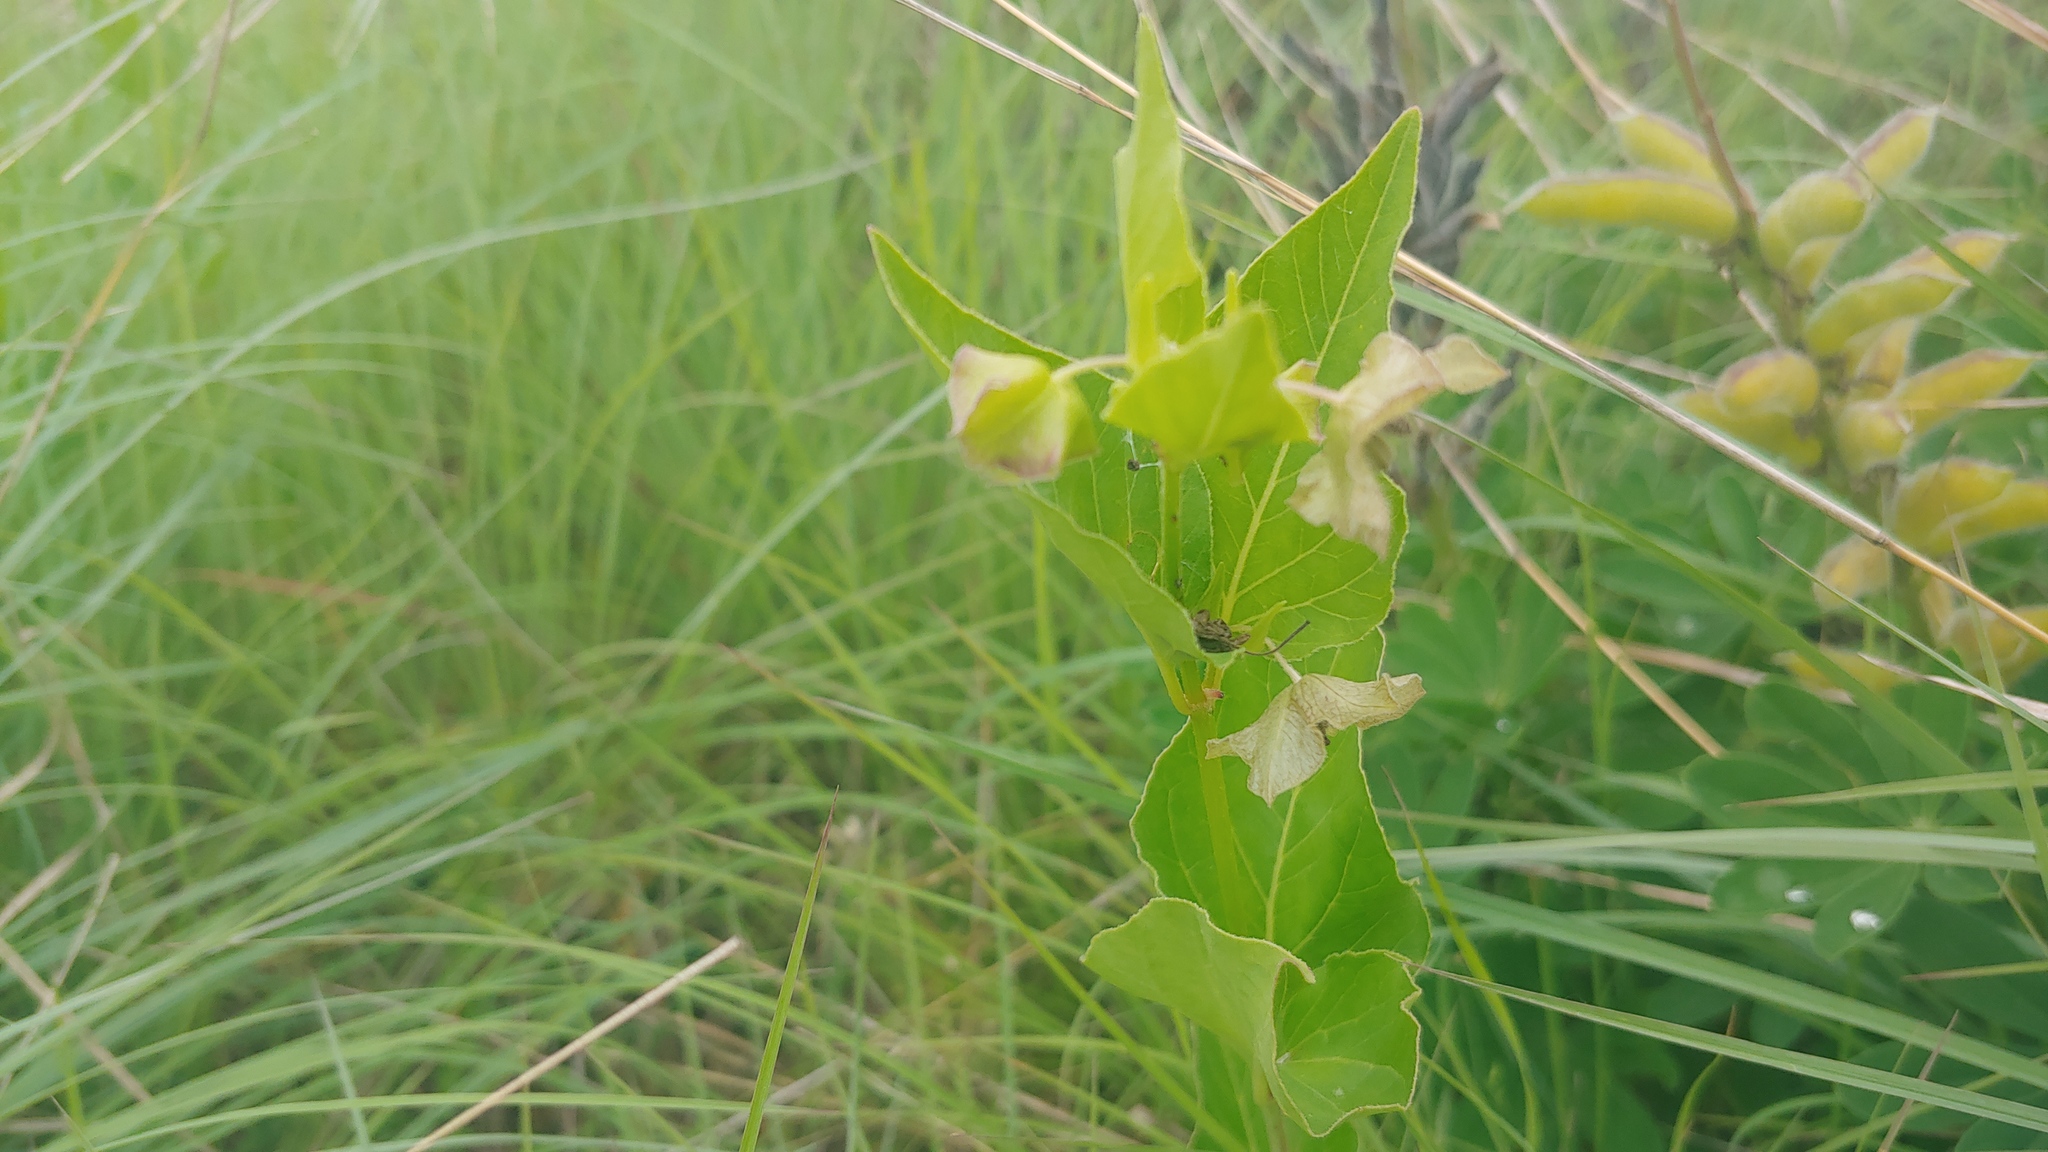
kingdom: Plantae
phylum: Tracheophyta
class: Magnoliopsida
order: Caryophyllales
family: Nyctaginaceae
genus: Mirabilis
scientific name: Mirabilis nyctaginea
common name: Umbrella wort
